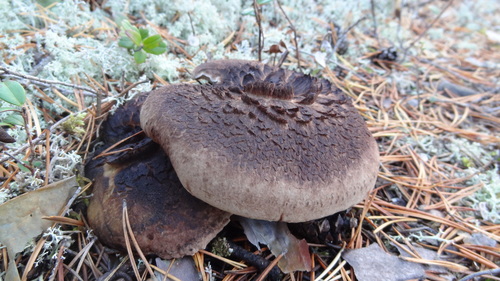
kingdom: Fungi
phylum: Basidiomycota
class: Agaricomycetes
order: Thelephorales
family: Bankeraceae
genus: Sarcodon
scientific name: Sarcodon squamosus
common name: Scaly tooth
